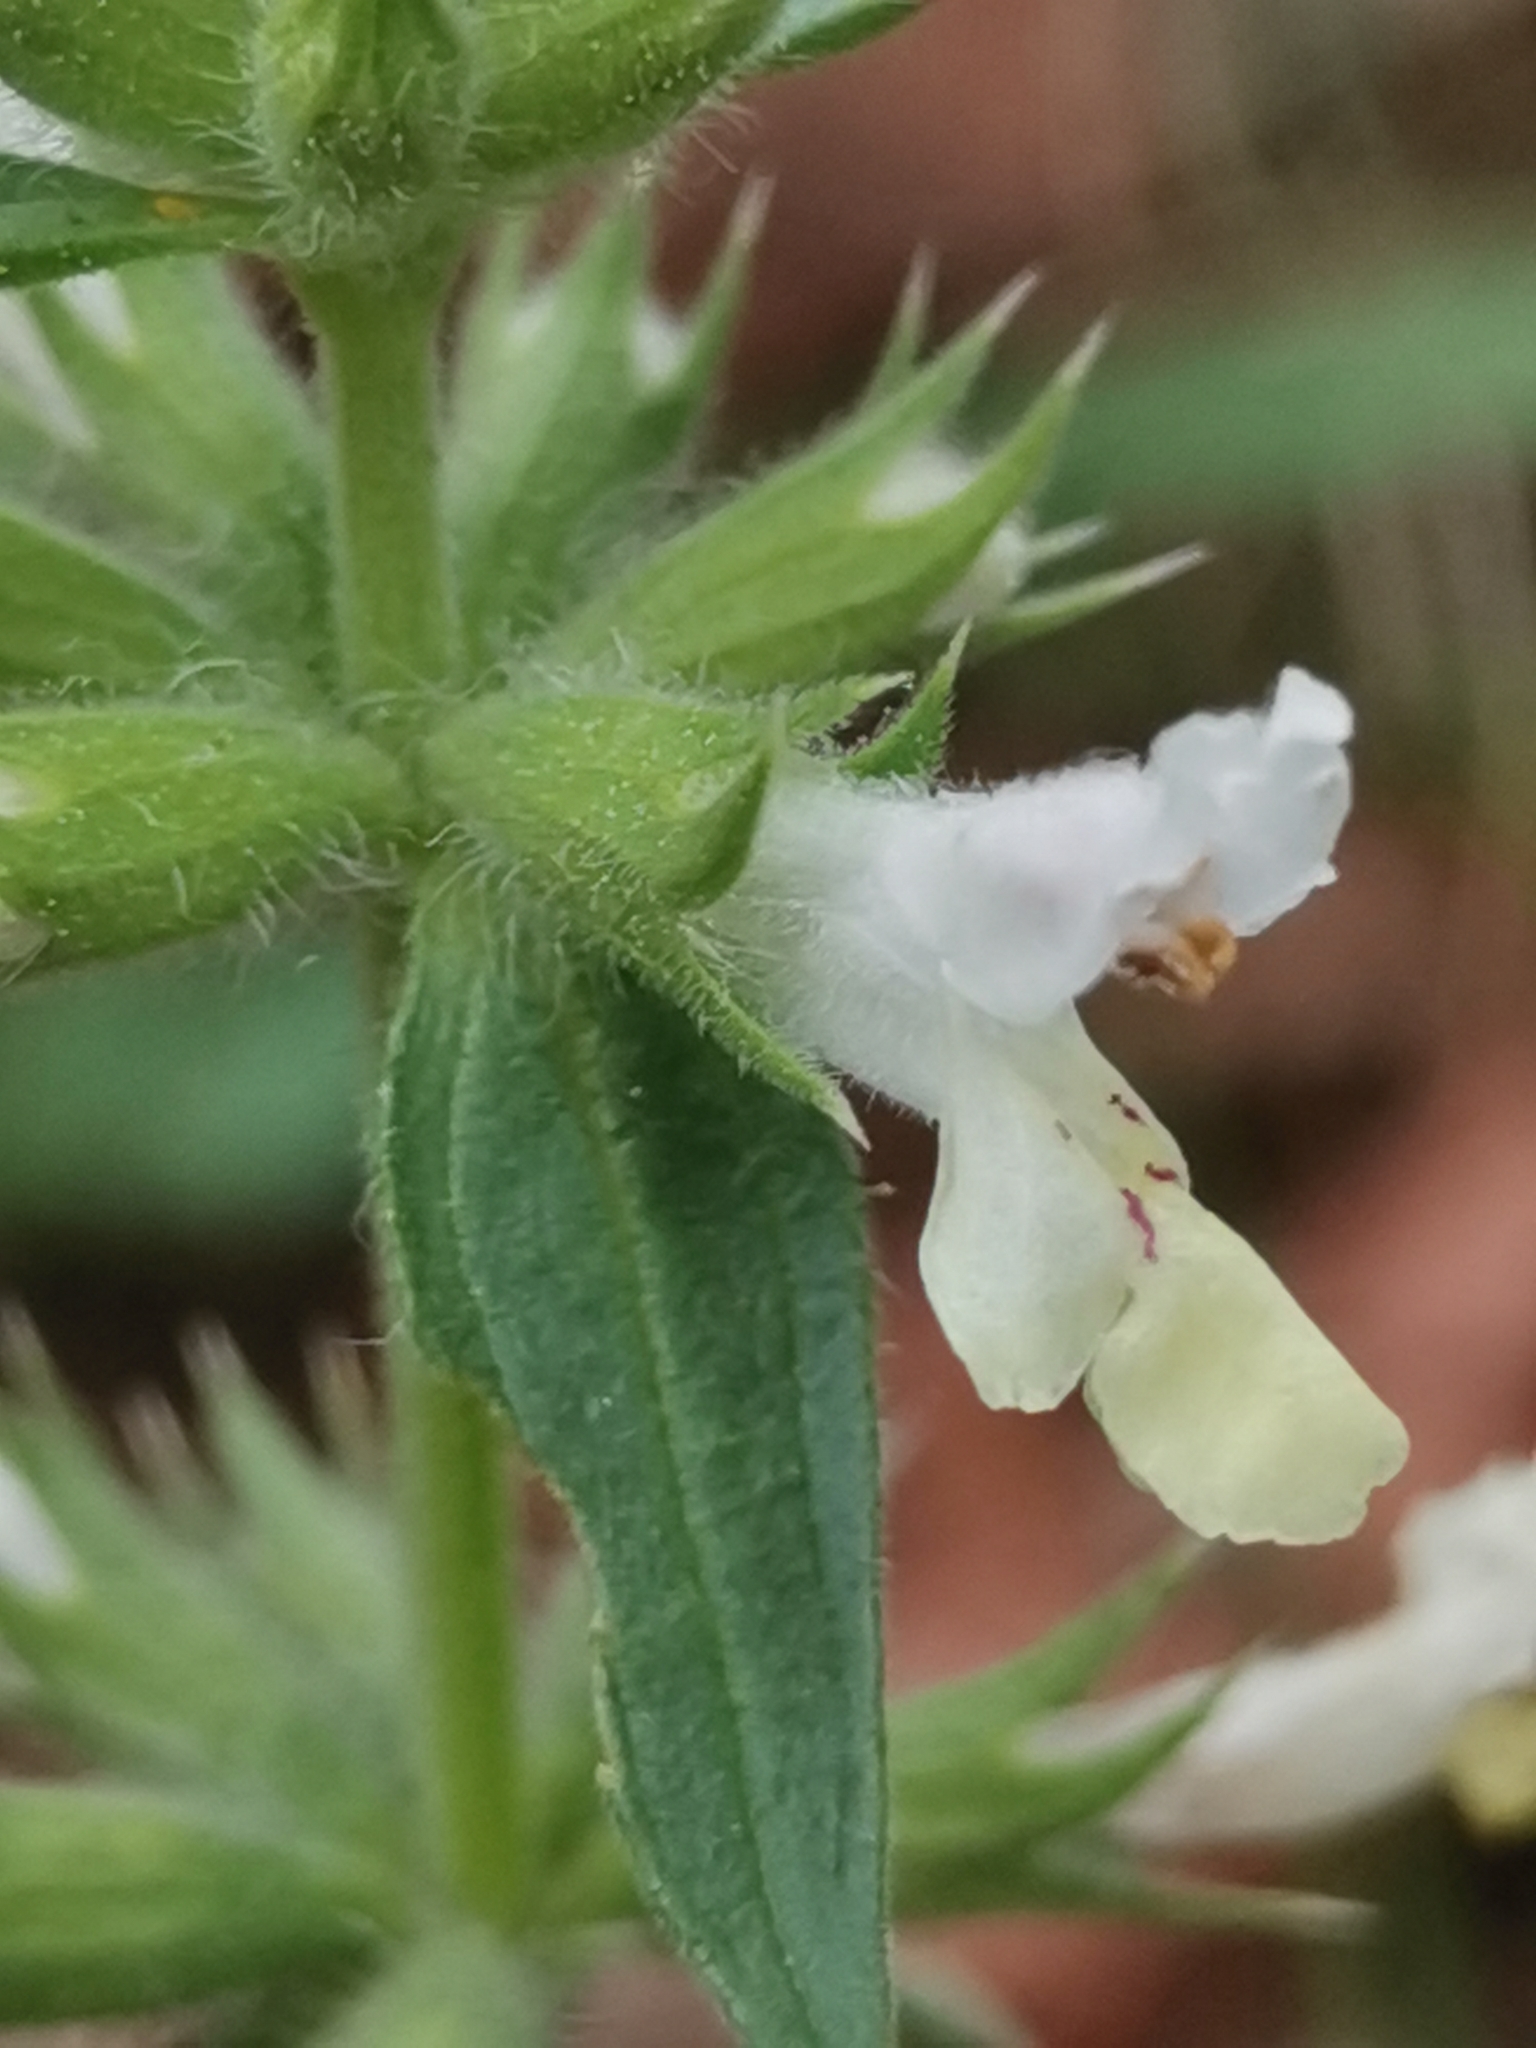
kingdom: Plantae
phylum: Tracheophyta
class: Magnoliopsida
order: Lamiales
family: Lamiaceae
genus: Stachys
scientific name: Stachys annua
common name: Annual yellow-woundwort
